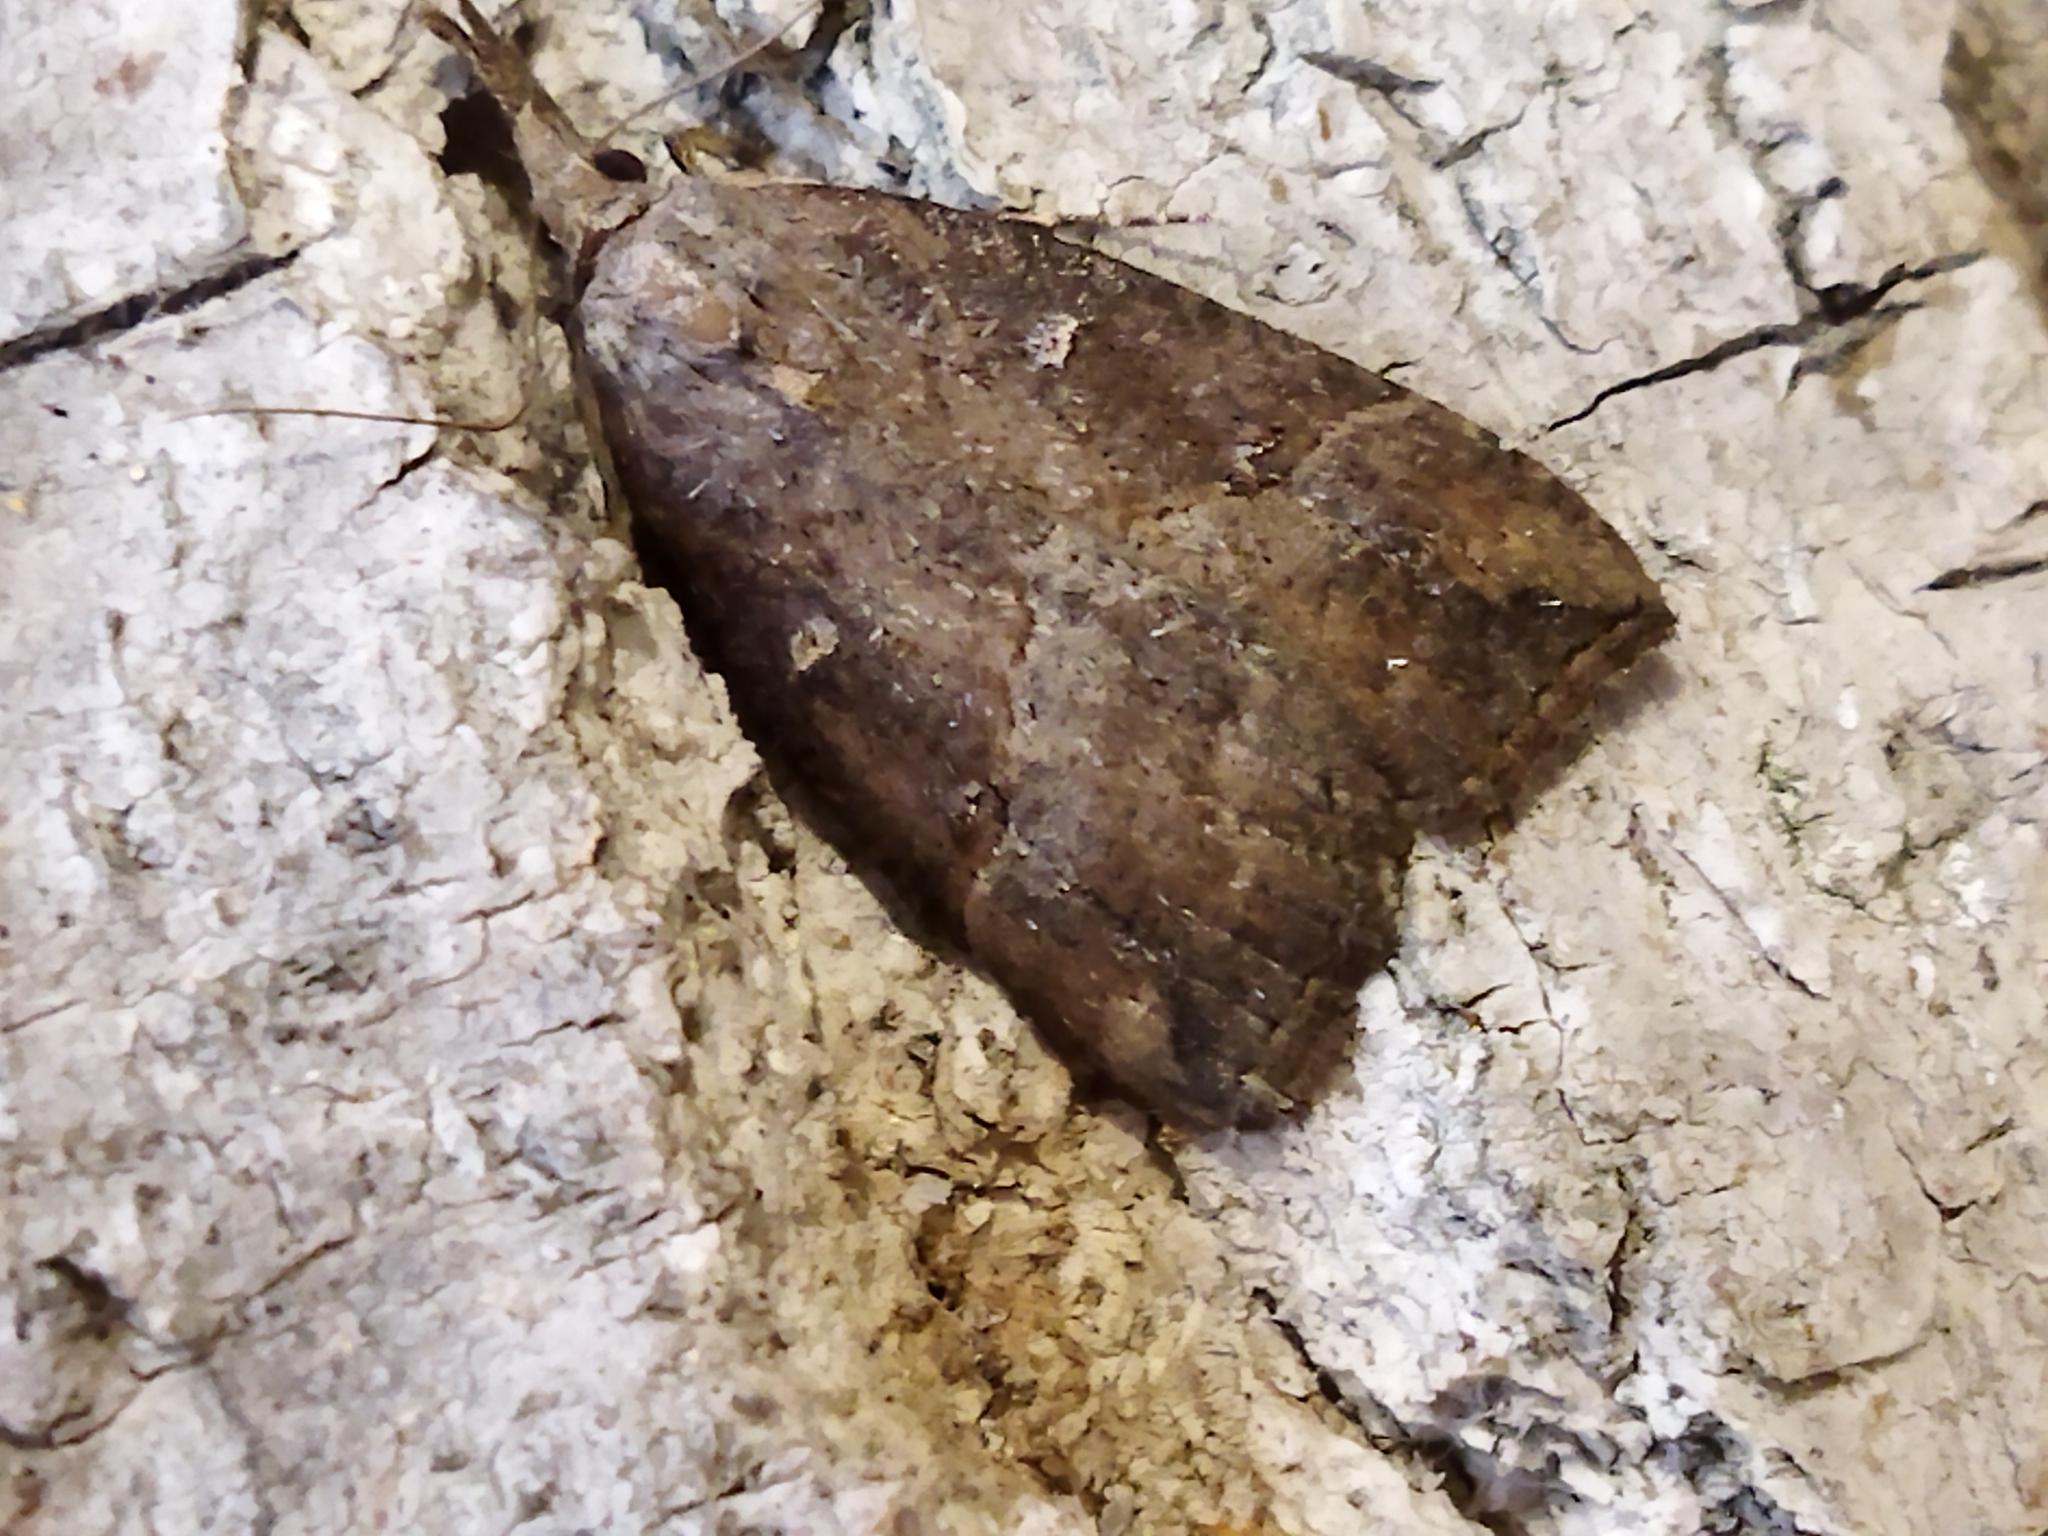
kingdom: Animalia
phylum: Arthropoda
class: Insecta
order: Lepidoptera
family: Erebidae
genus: Hypena
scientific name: Hypena rostralis
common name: Buttoned snout
